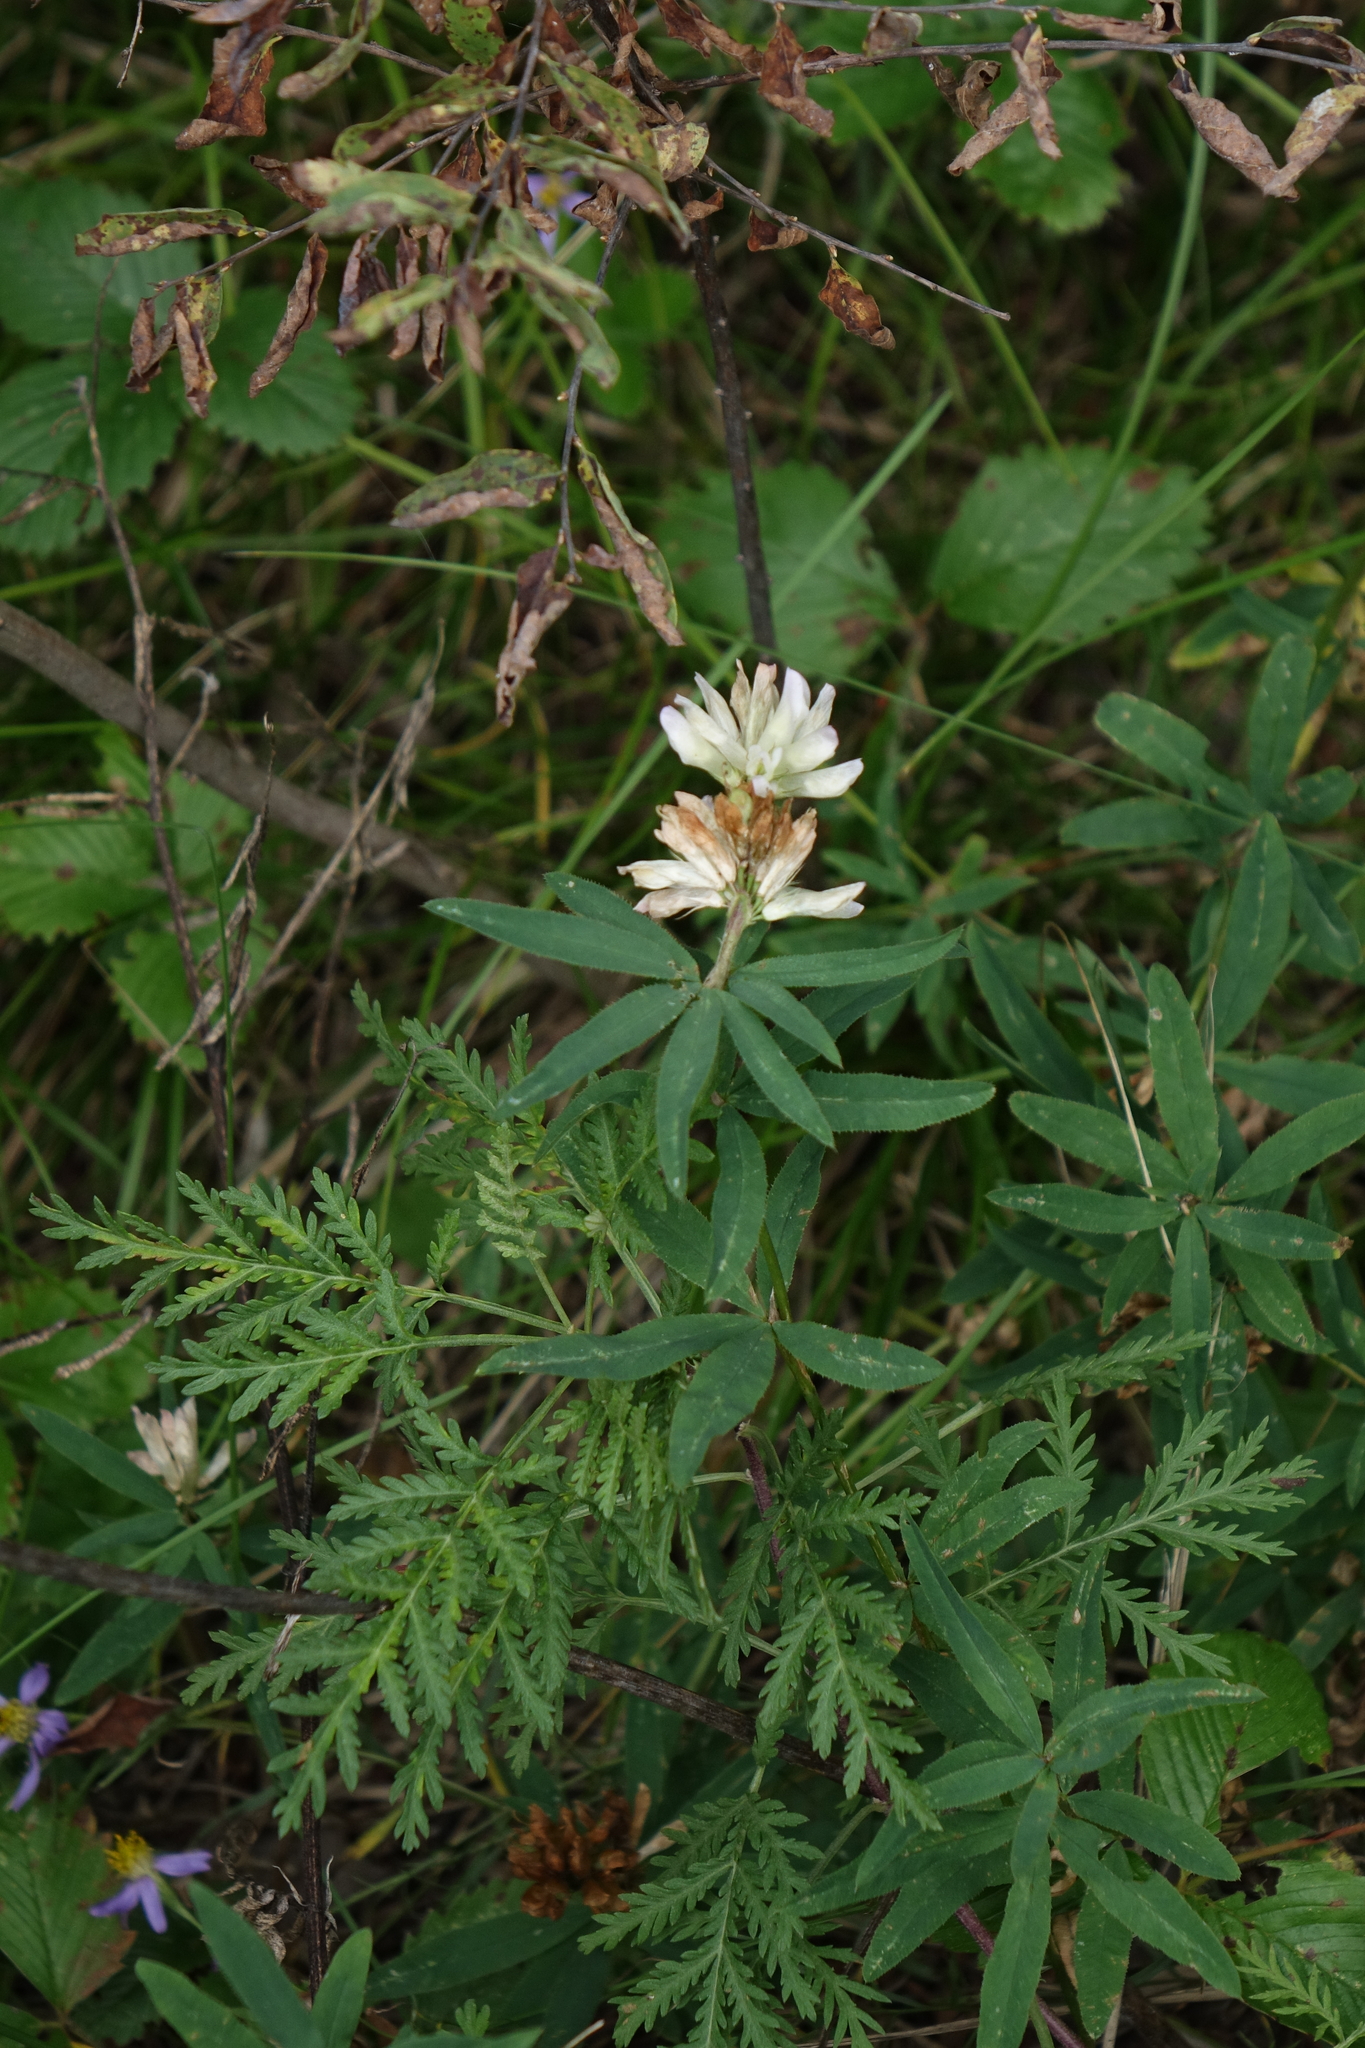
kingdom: Plantae
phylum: Tracheophyta
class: Magnoliopsida
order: Fabales
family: Fabaceae
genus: Trifolium
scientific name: Trifolium lupinaster
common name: Lupine clover
